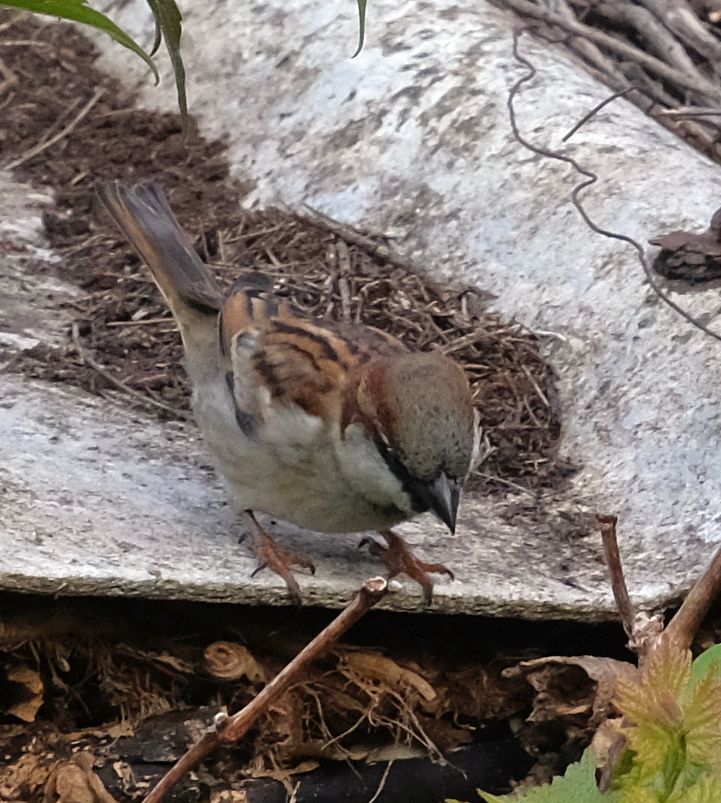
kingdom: Animalia
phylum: Chordata
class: Aves
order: Passeriformes
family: Passeridae
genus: Passer
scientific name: Passer domesticus
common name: House sparrow
